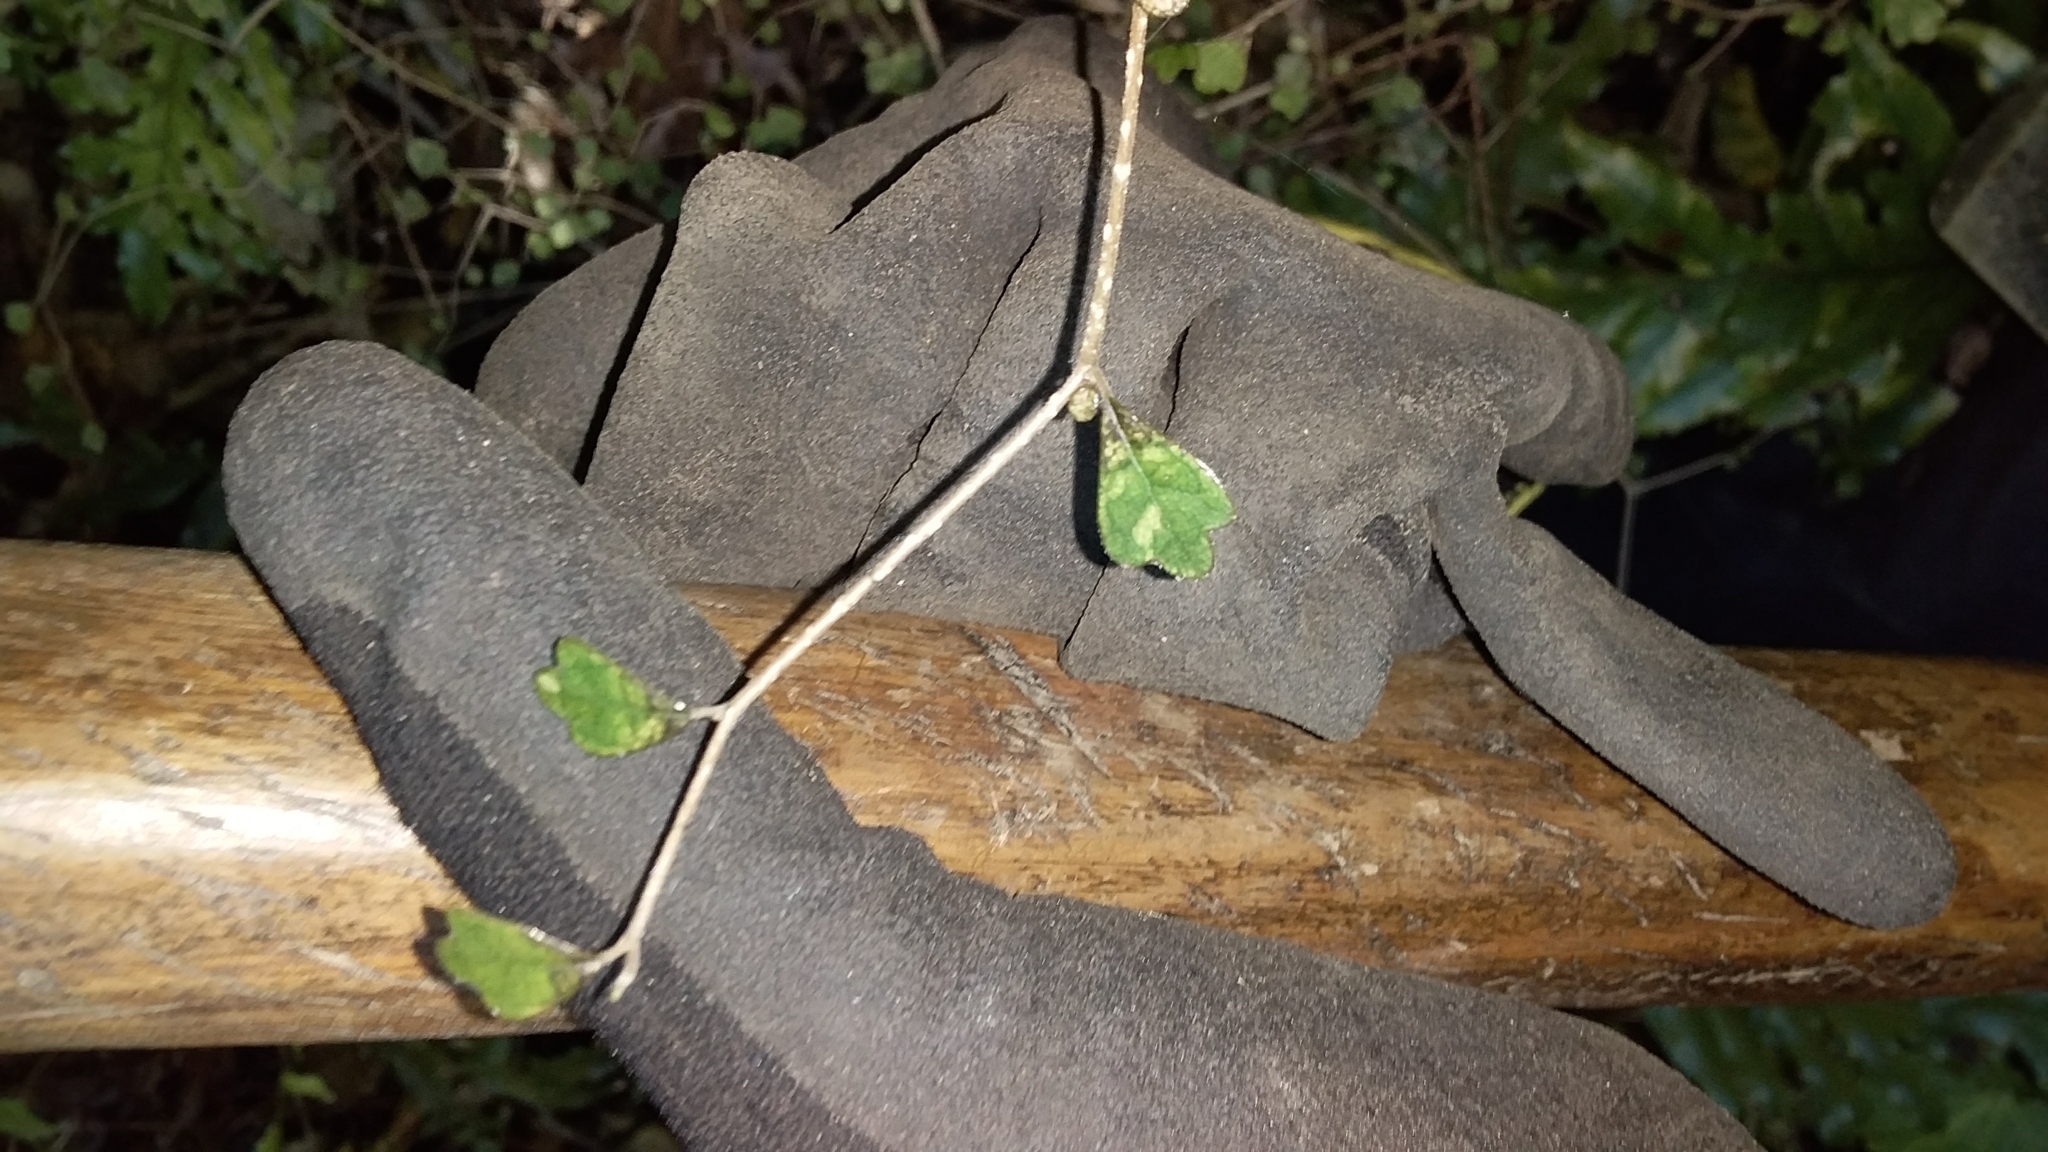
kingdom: Plantae
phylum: Tracheophyta
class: Magnoliopsida
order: Apiales
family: Pennantiaceae
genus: Pennantia
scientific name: Pennantia corymbosa
